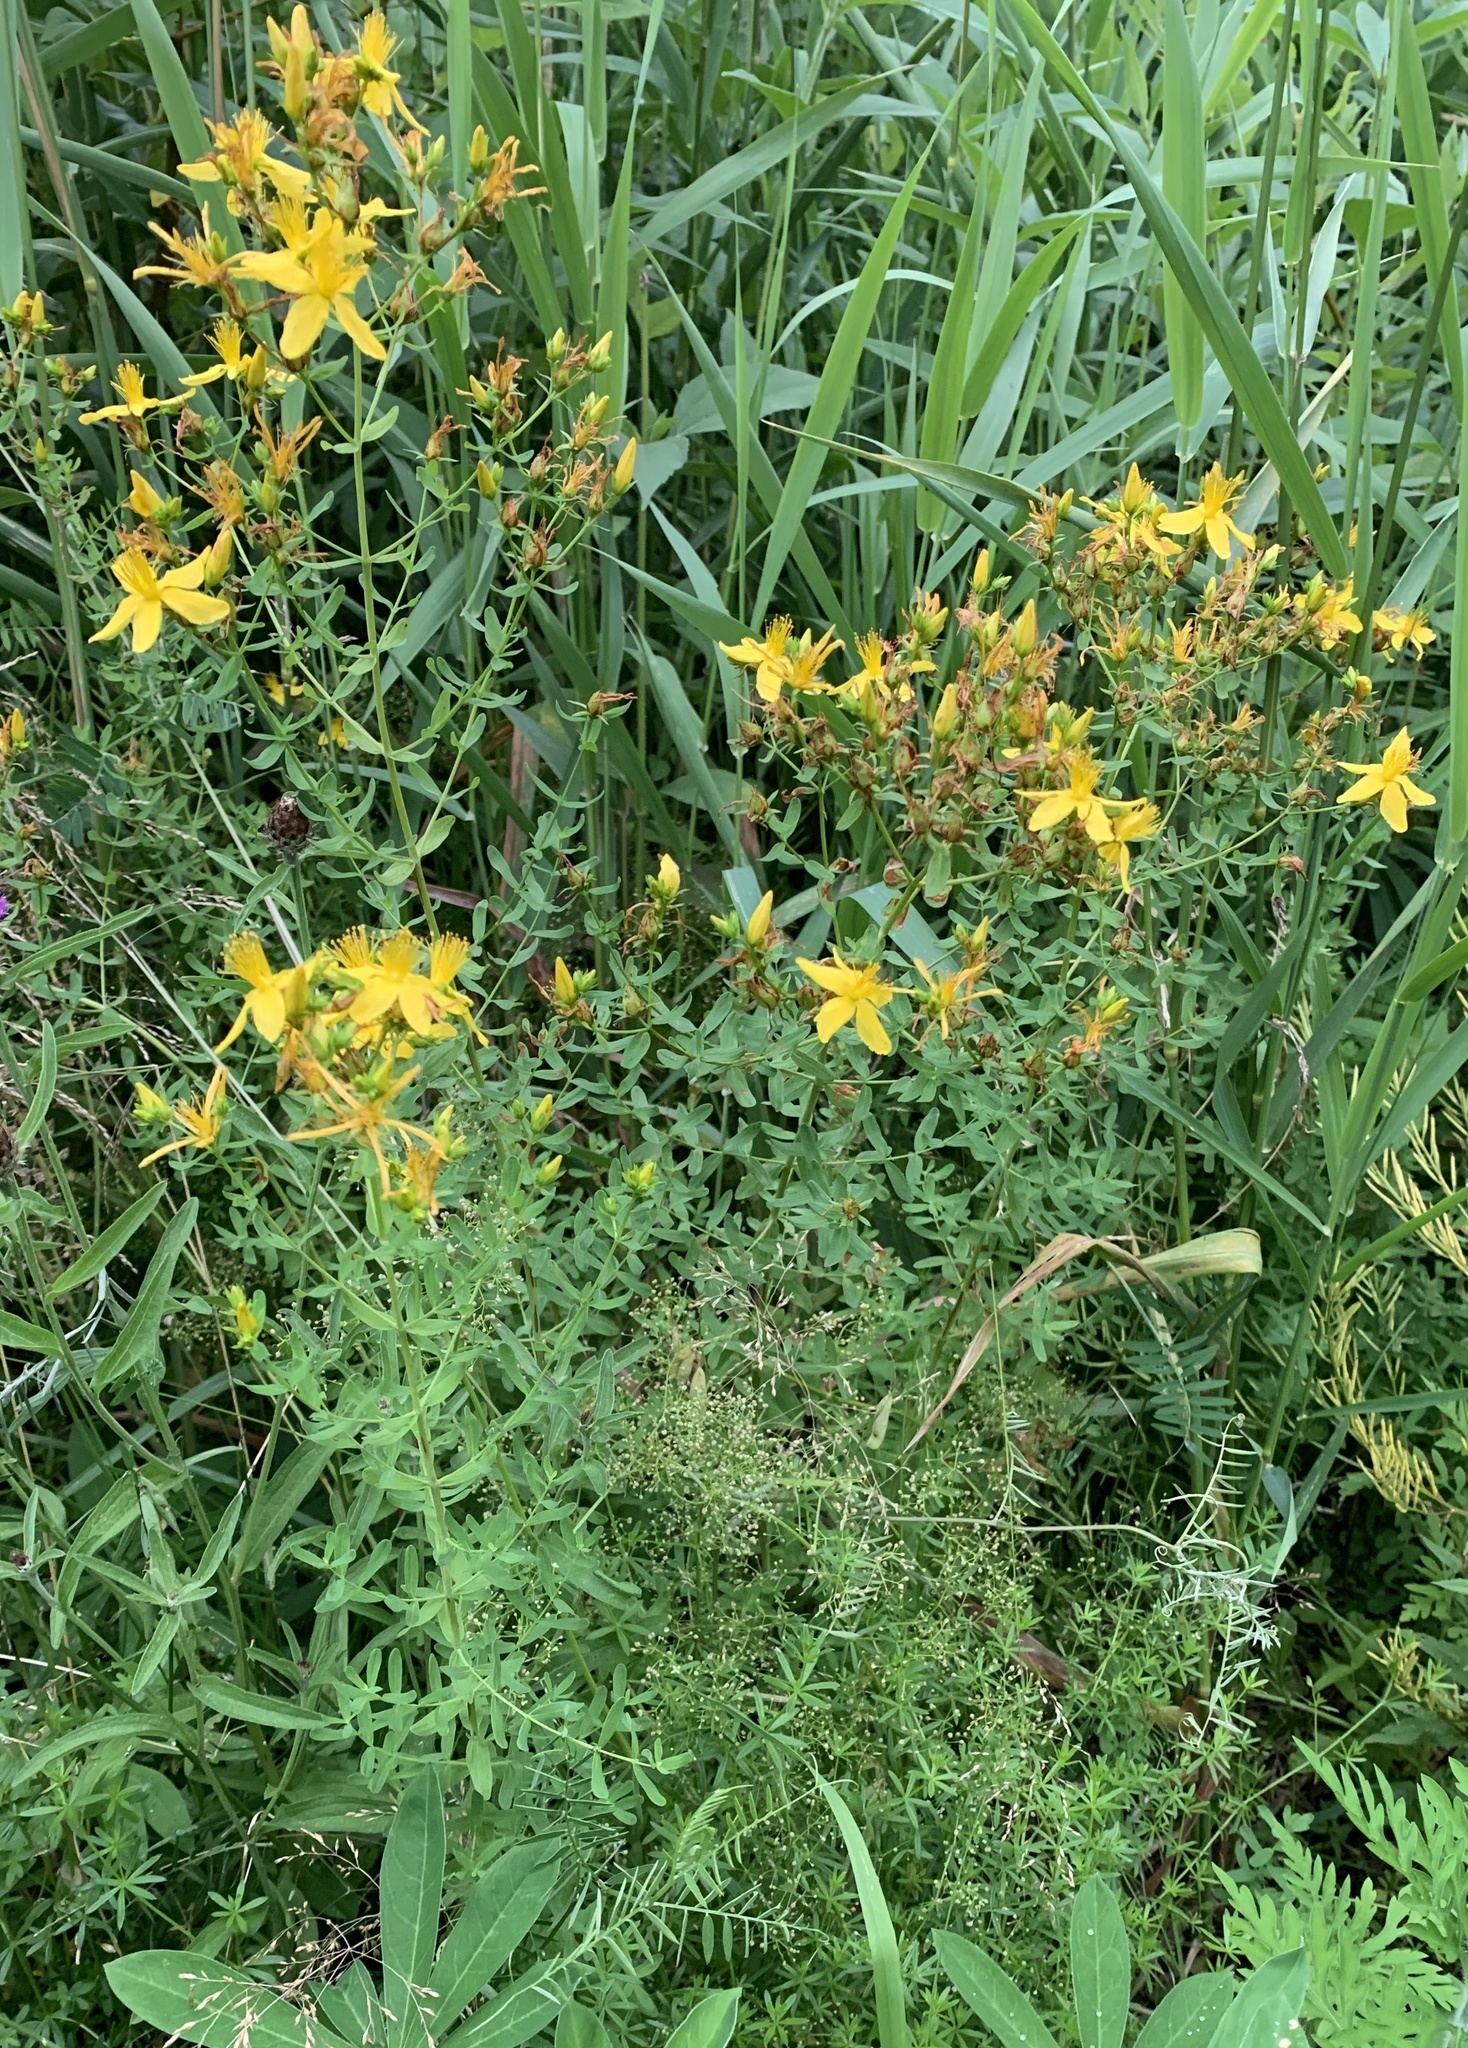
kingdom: Plantae
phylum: Tracheophyta
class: Magnoliopsida
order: Malpighiales
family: Hypericaceae
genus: Hypericum
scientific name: Hypericum perforatum
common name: Common st. johnswort
